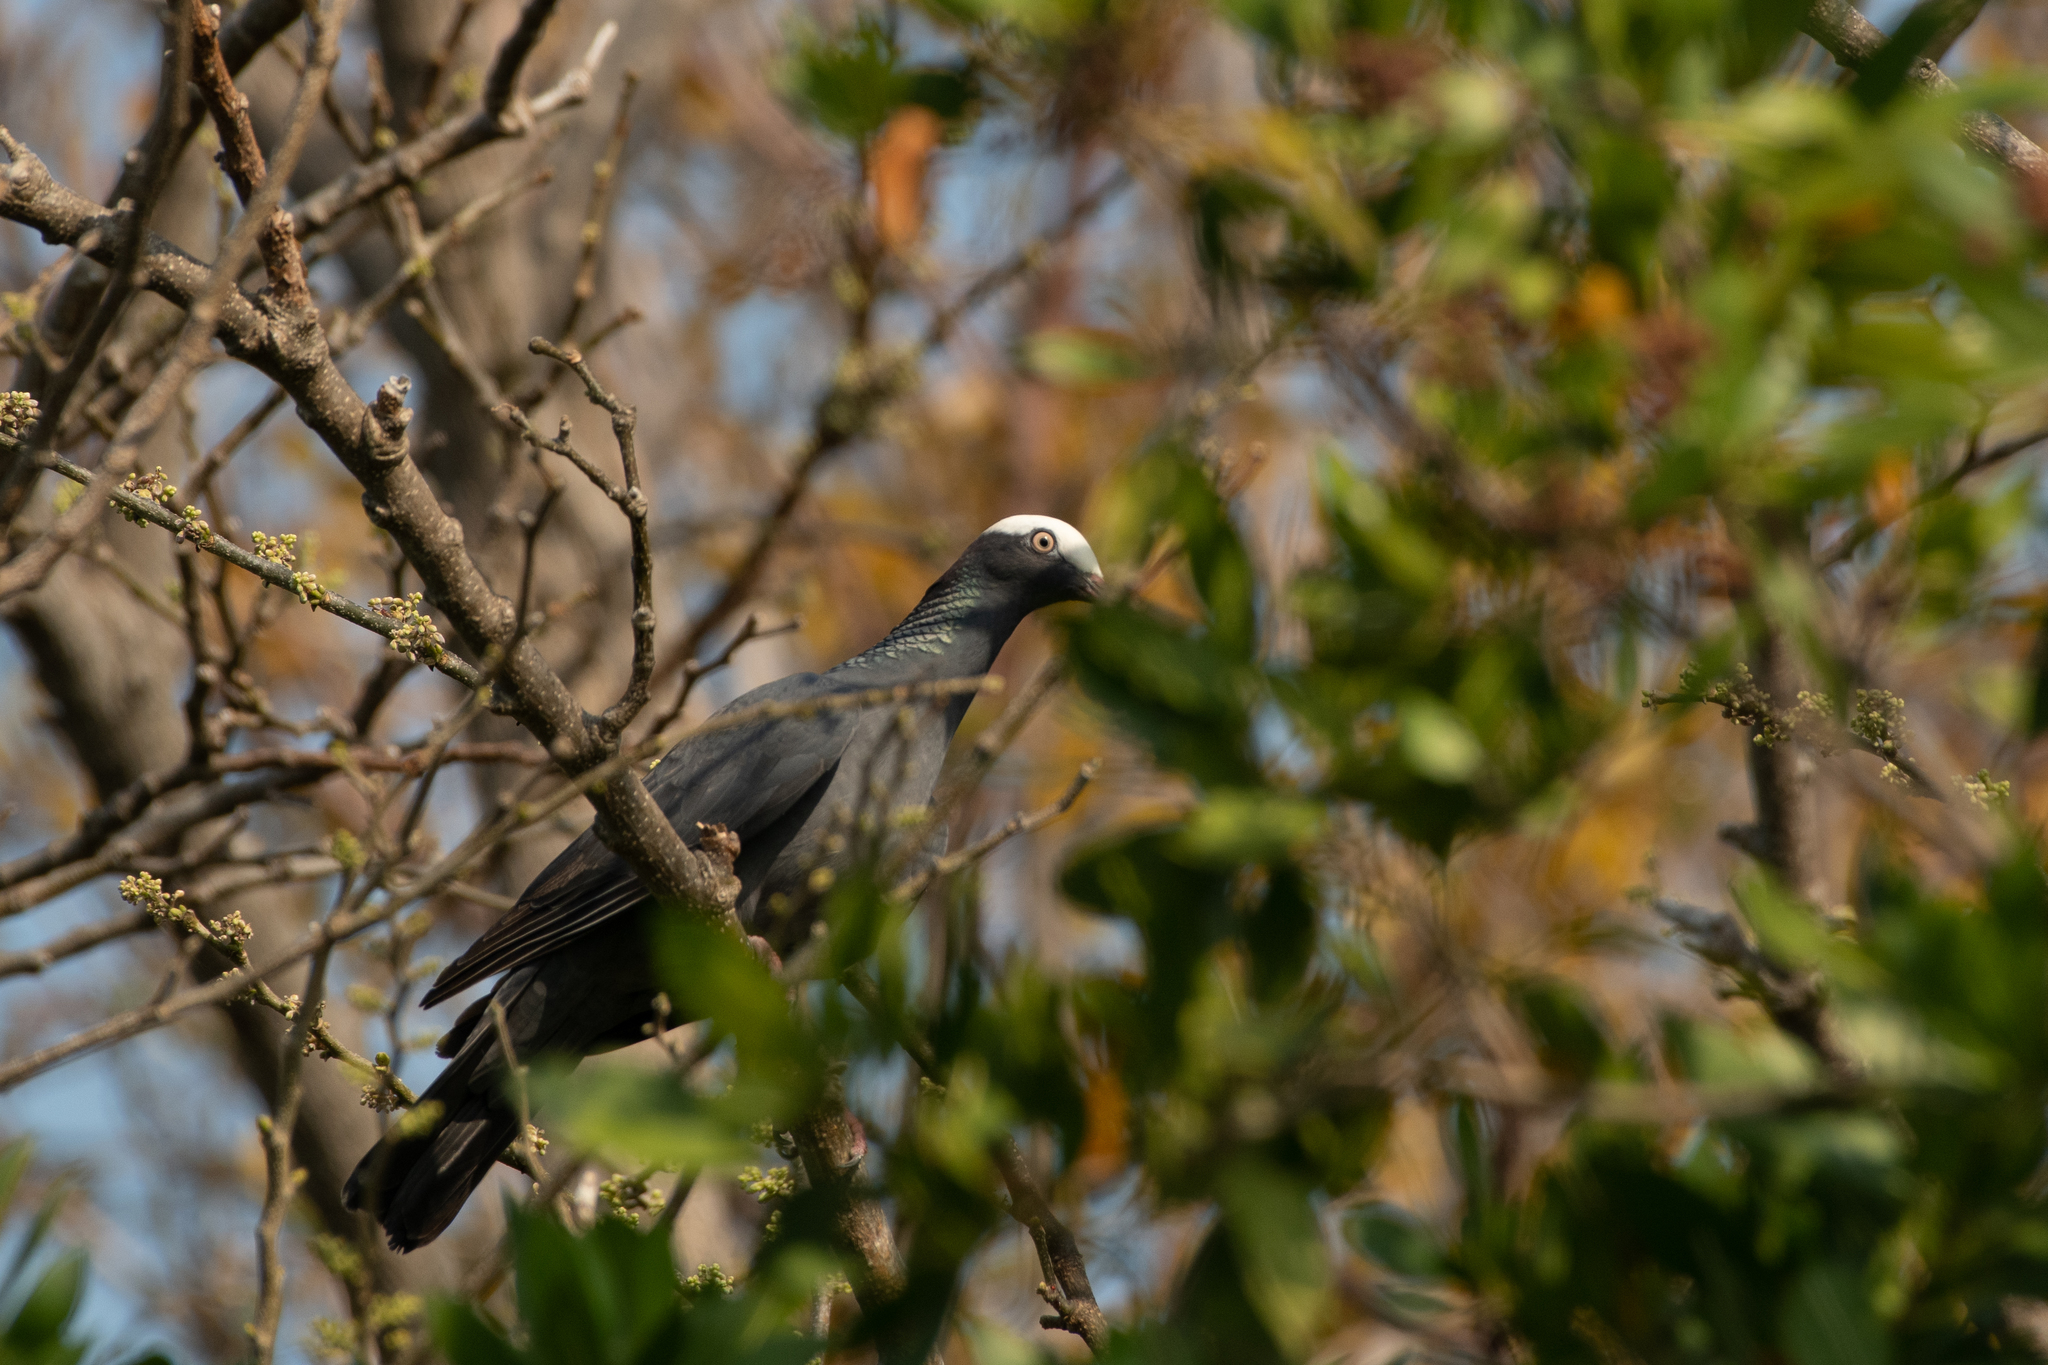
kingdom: Animalia
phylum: Chordata
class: Aves
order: Columbiformes
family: Columbidae
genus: Patagioenas
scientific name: Patagioenas leucocephala
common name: White-crowned pigeon
